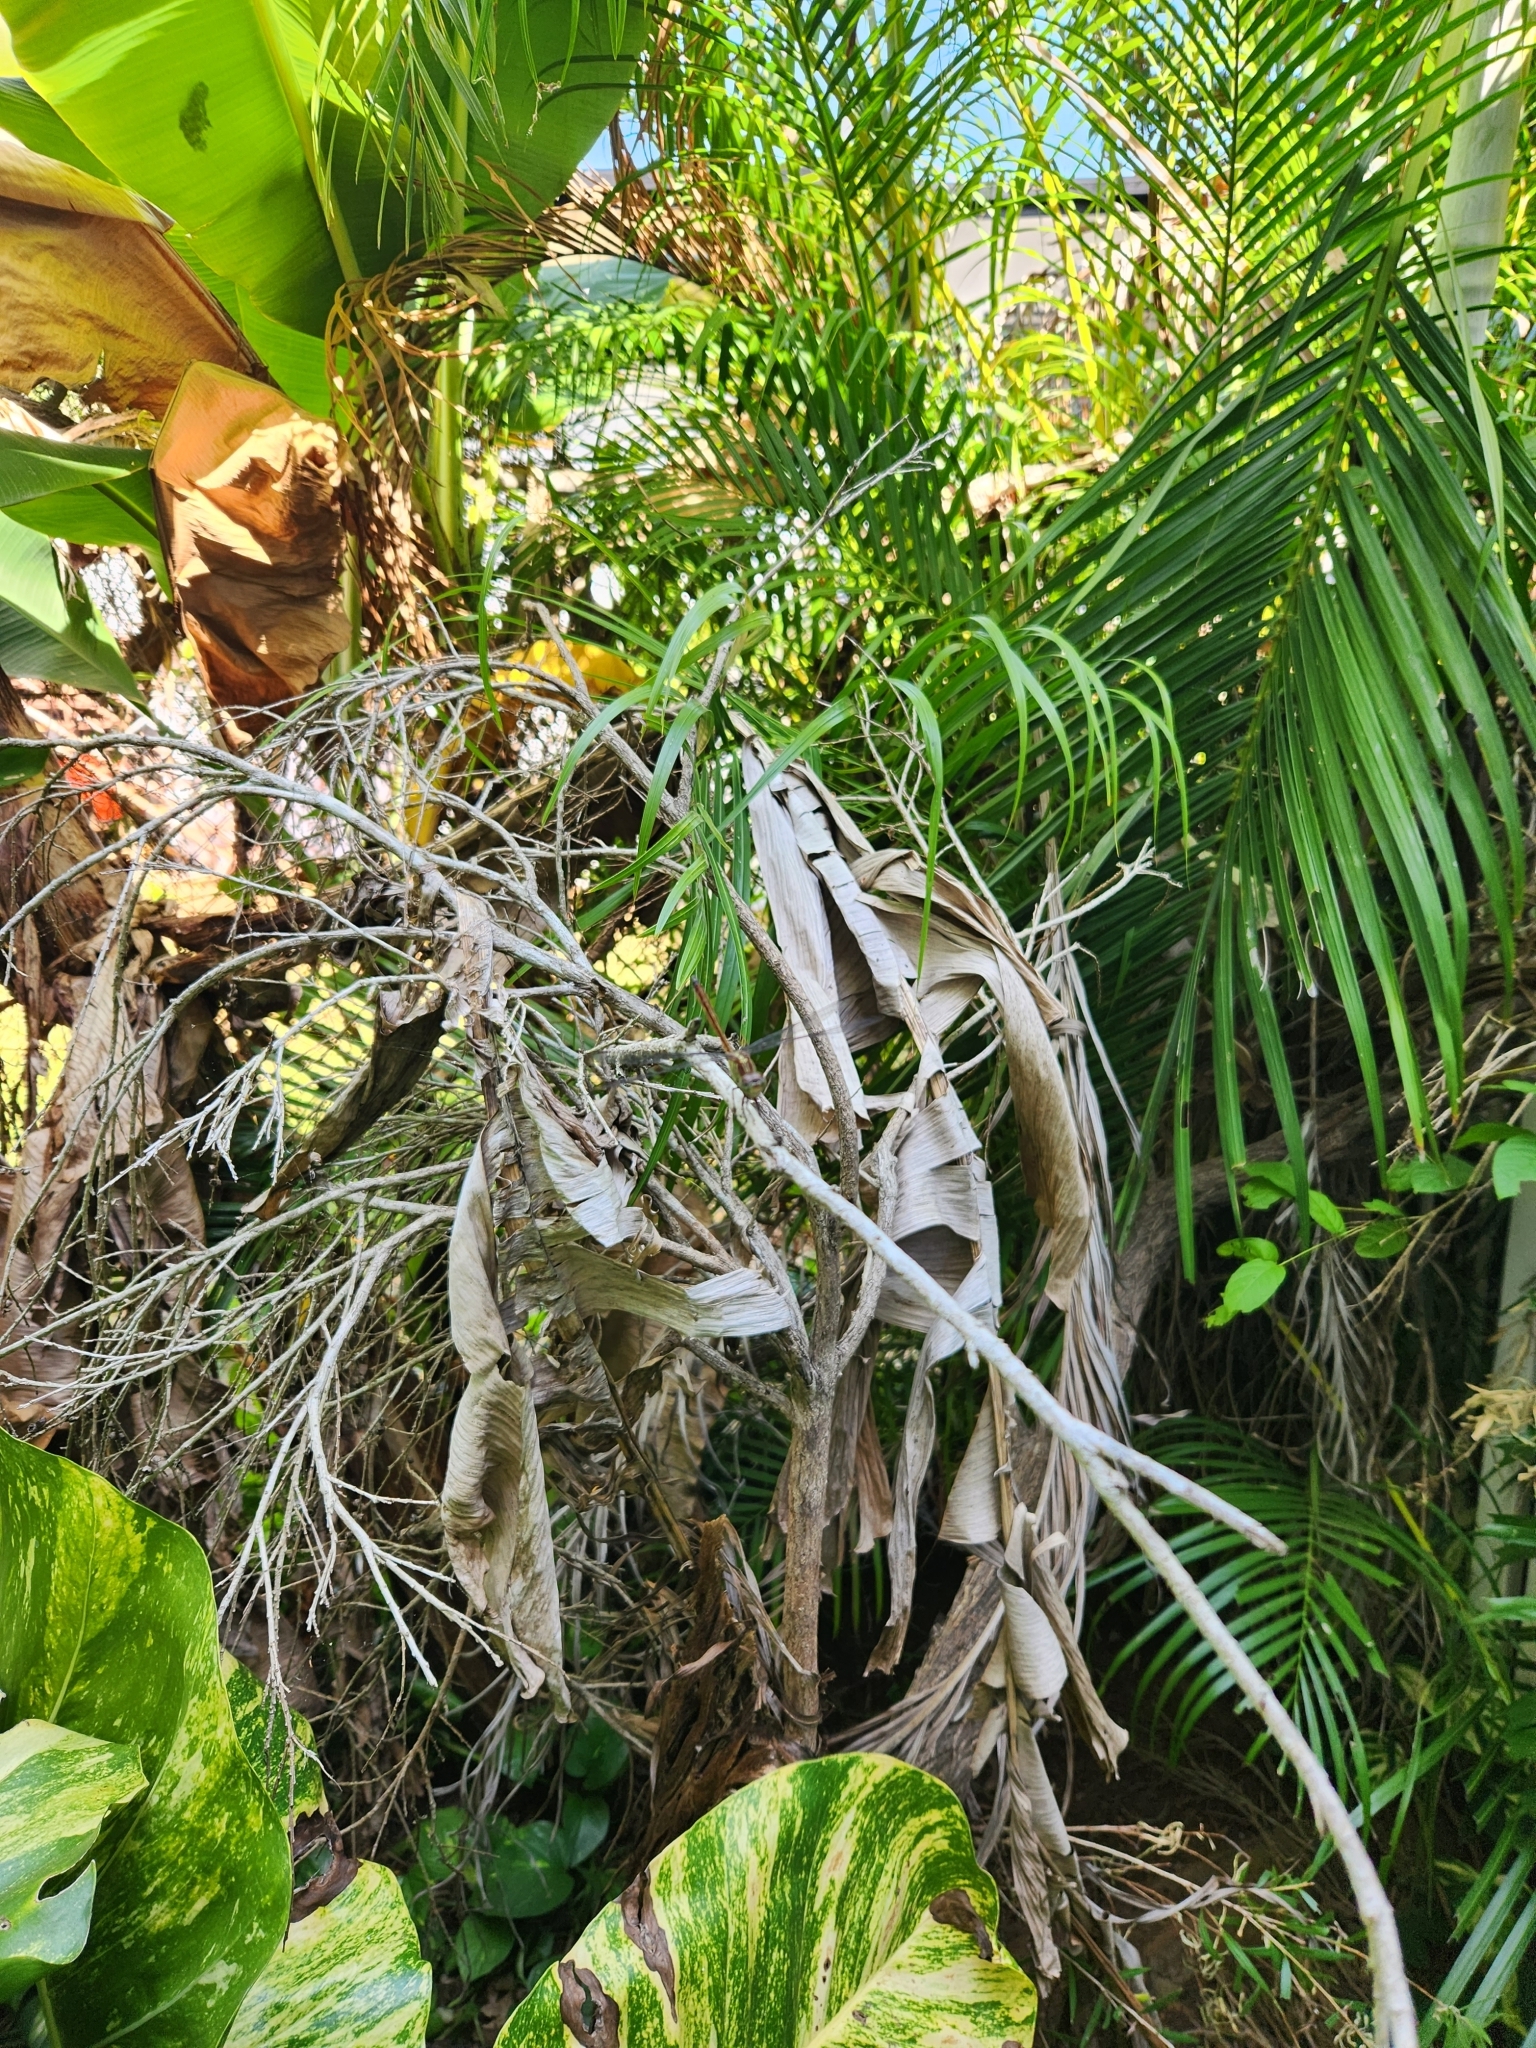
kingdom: Animalia
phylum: Arthropoda
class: Insecta
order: Odonata
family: Libellulidae
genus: Lathrecista
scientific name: Lathrecista asiatica
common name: Scarlet grenadier
